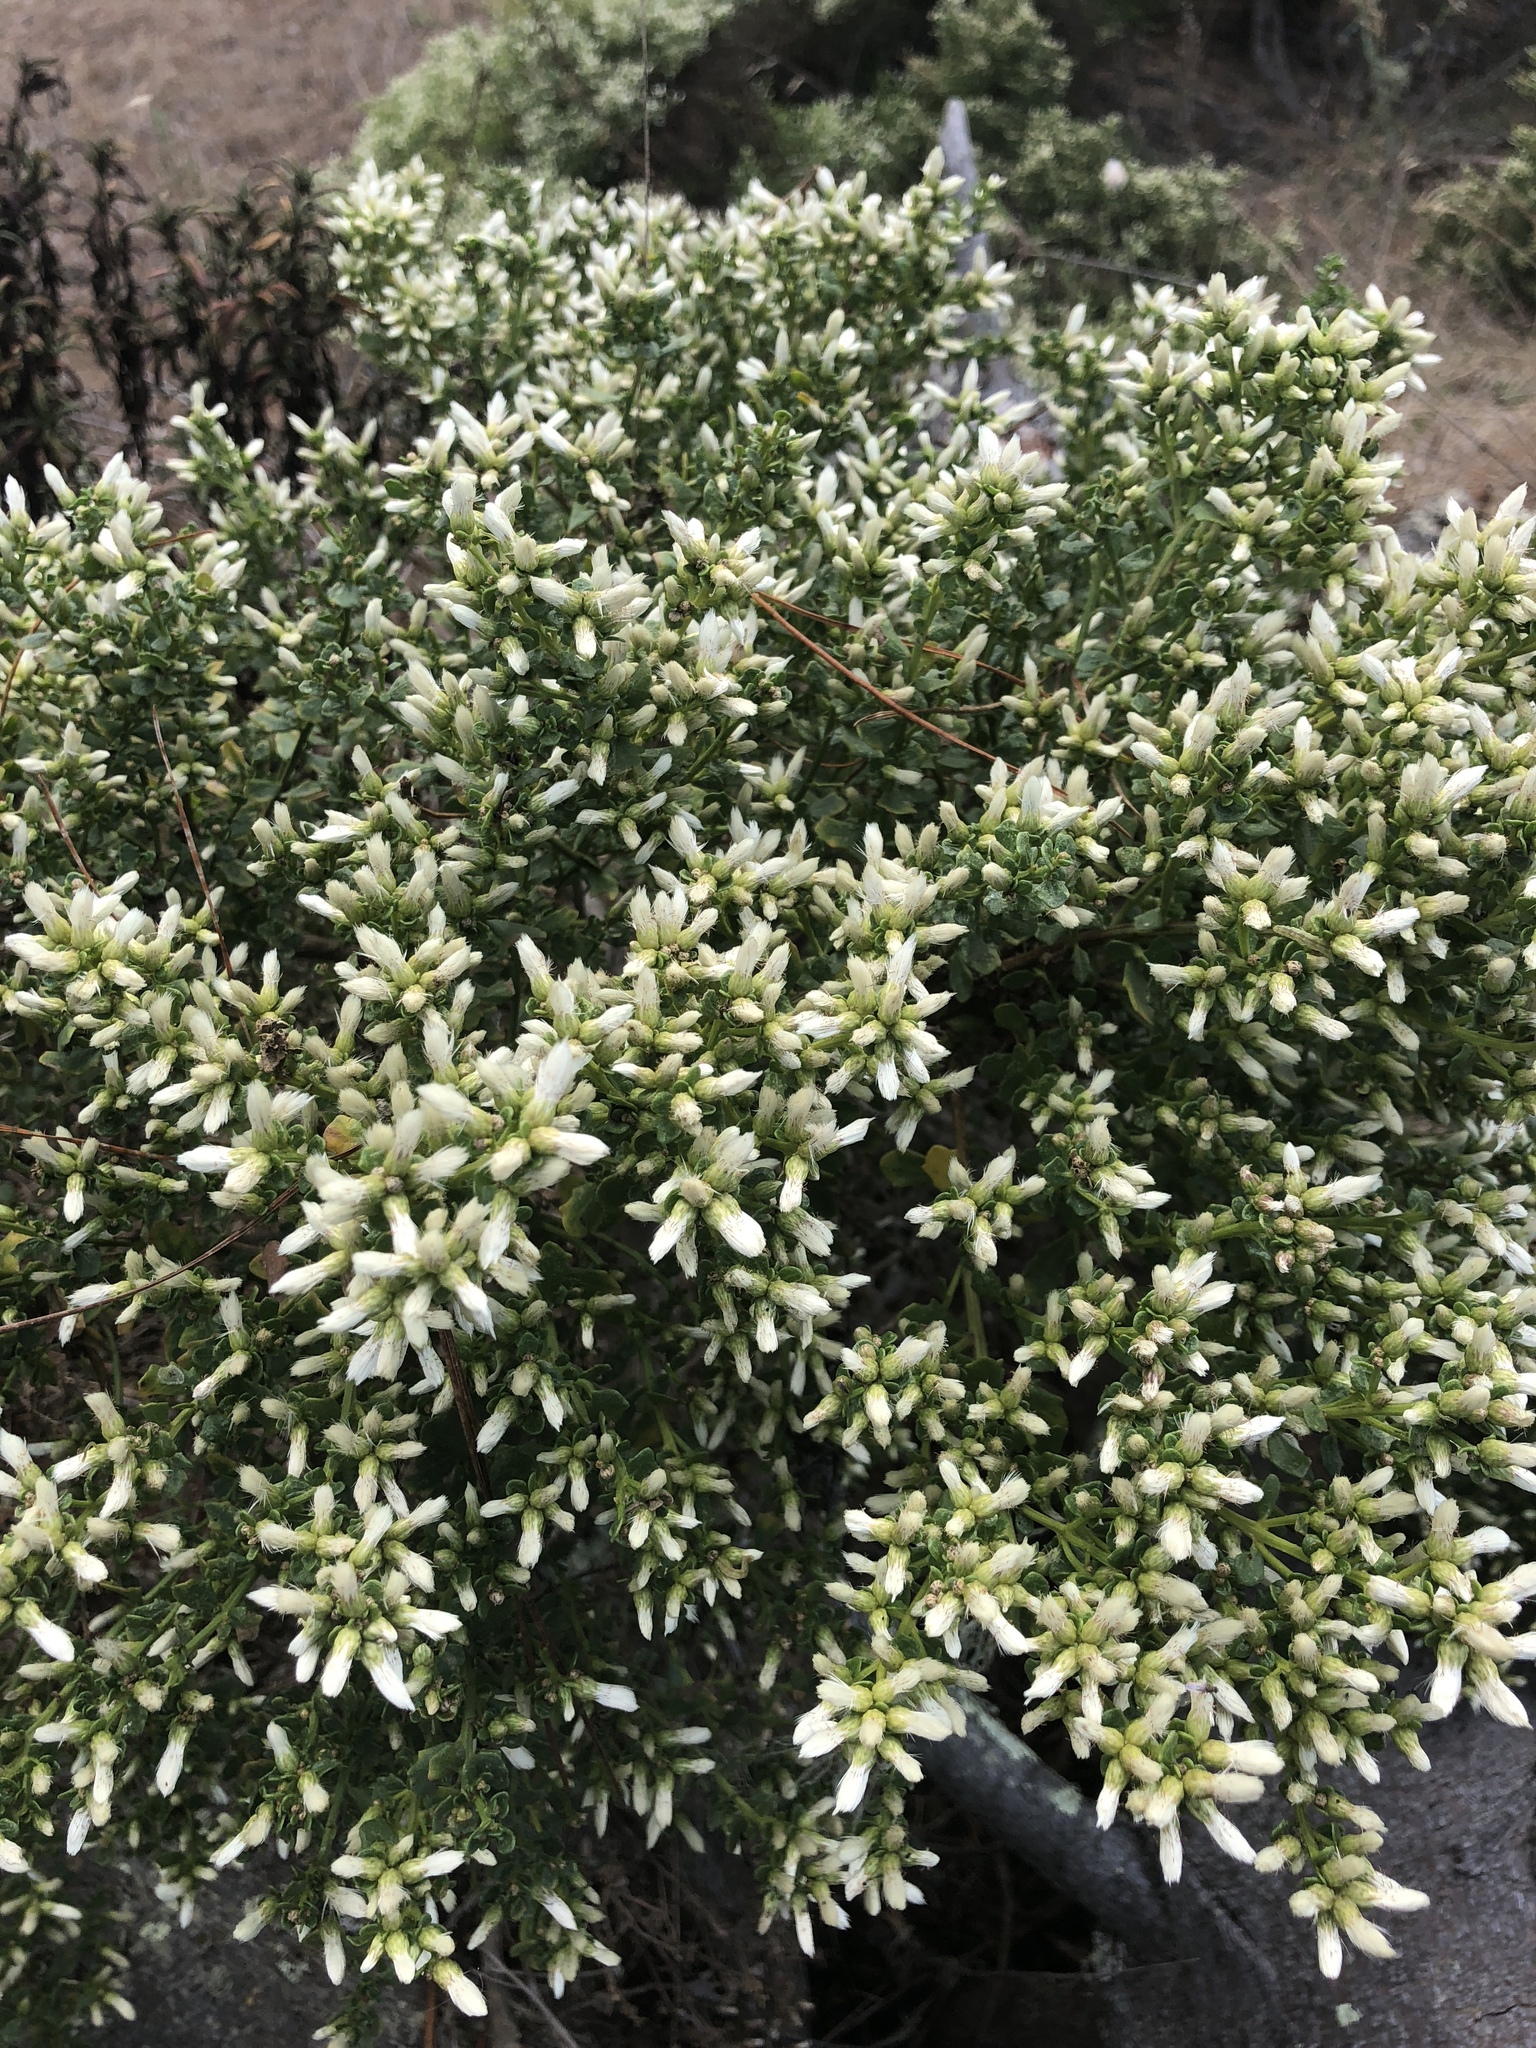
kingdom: Plantae
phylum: Tracheophyta
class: Magnoliopsida
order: Asterales
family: Asteraceae
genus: Baccharis
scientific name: Baccharis pilularis
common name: Coyotebrush
